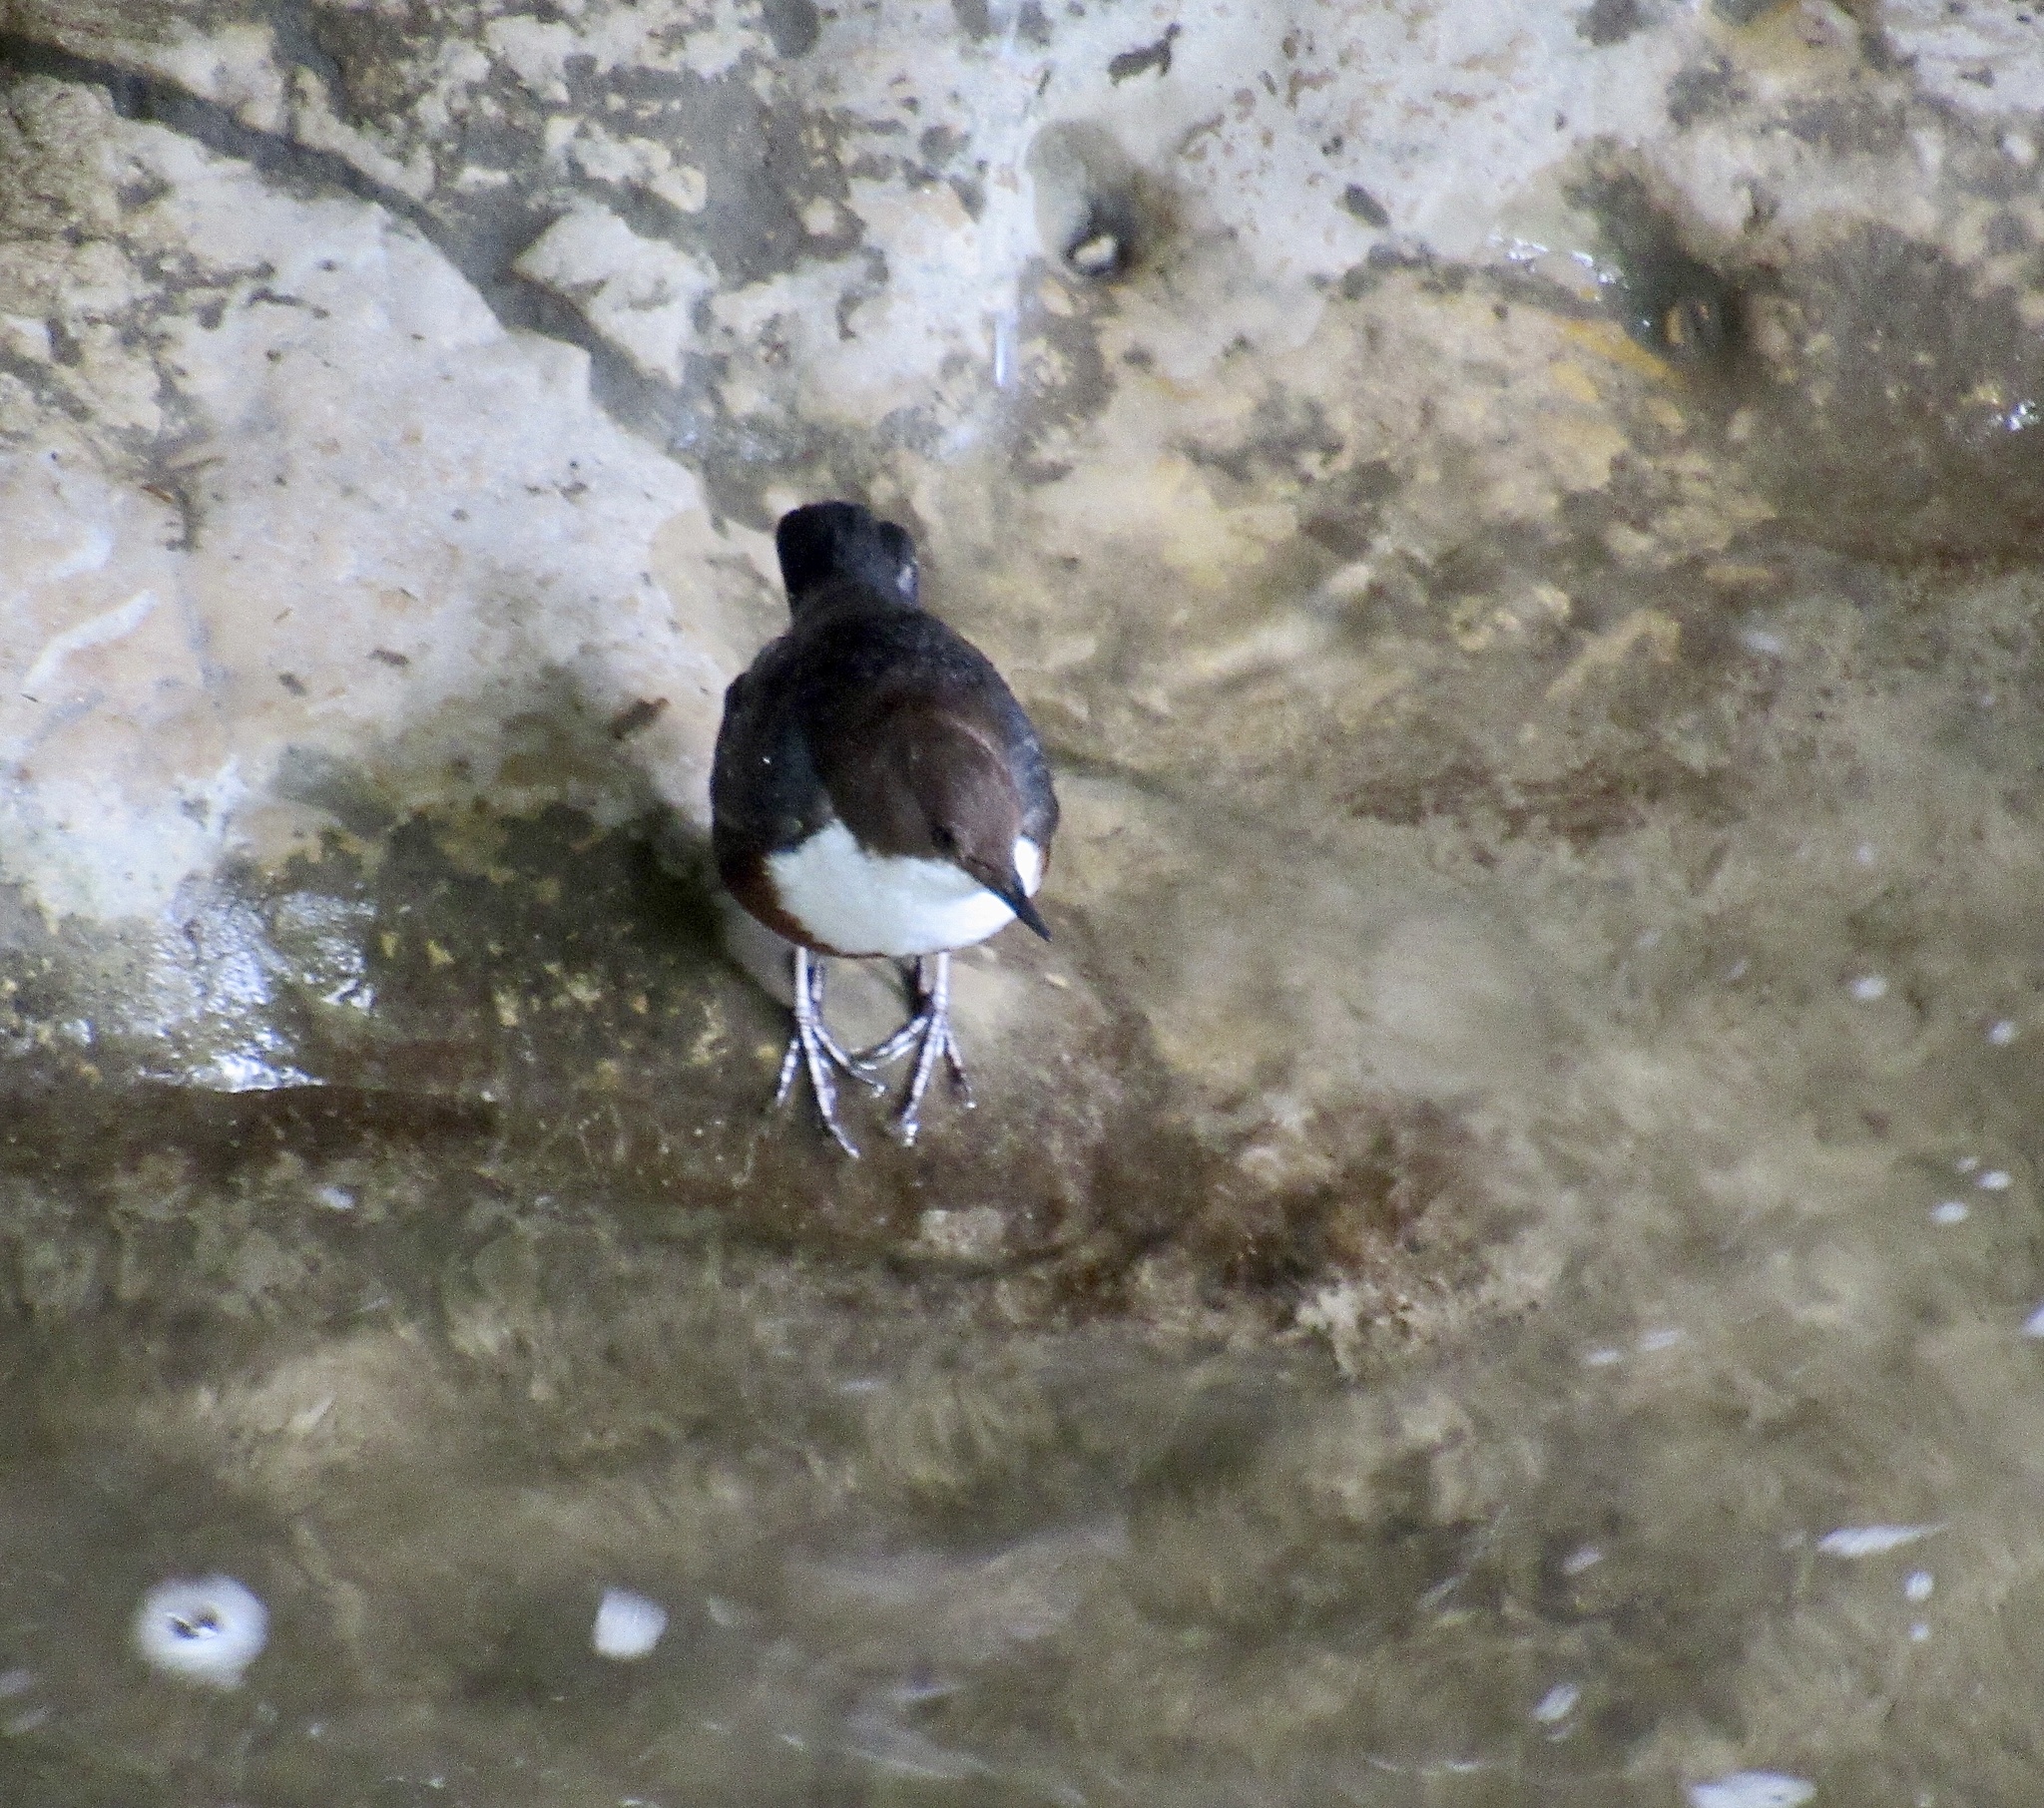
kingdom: Animalia
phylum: Chordata
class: Aves
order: Passeriformes
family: Cinclidae
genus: Cinclus
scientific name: Cinclus cinclus
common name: White-throated dipper
